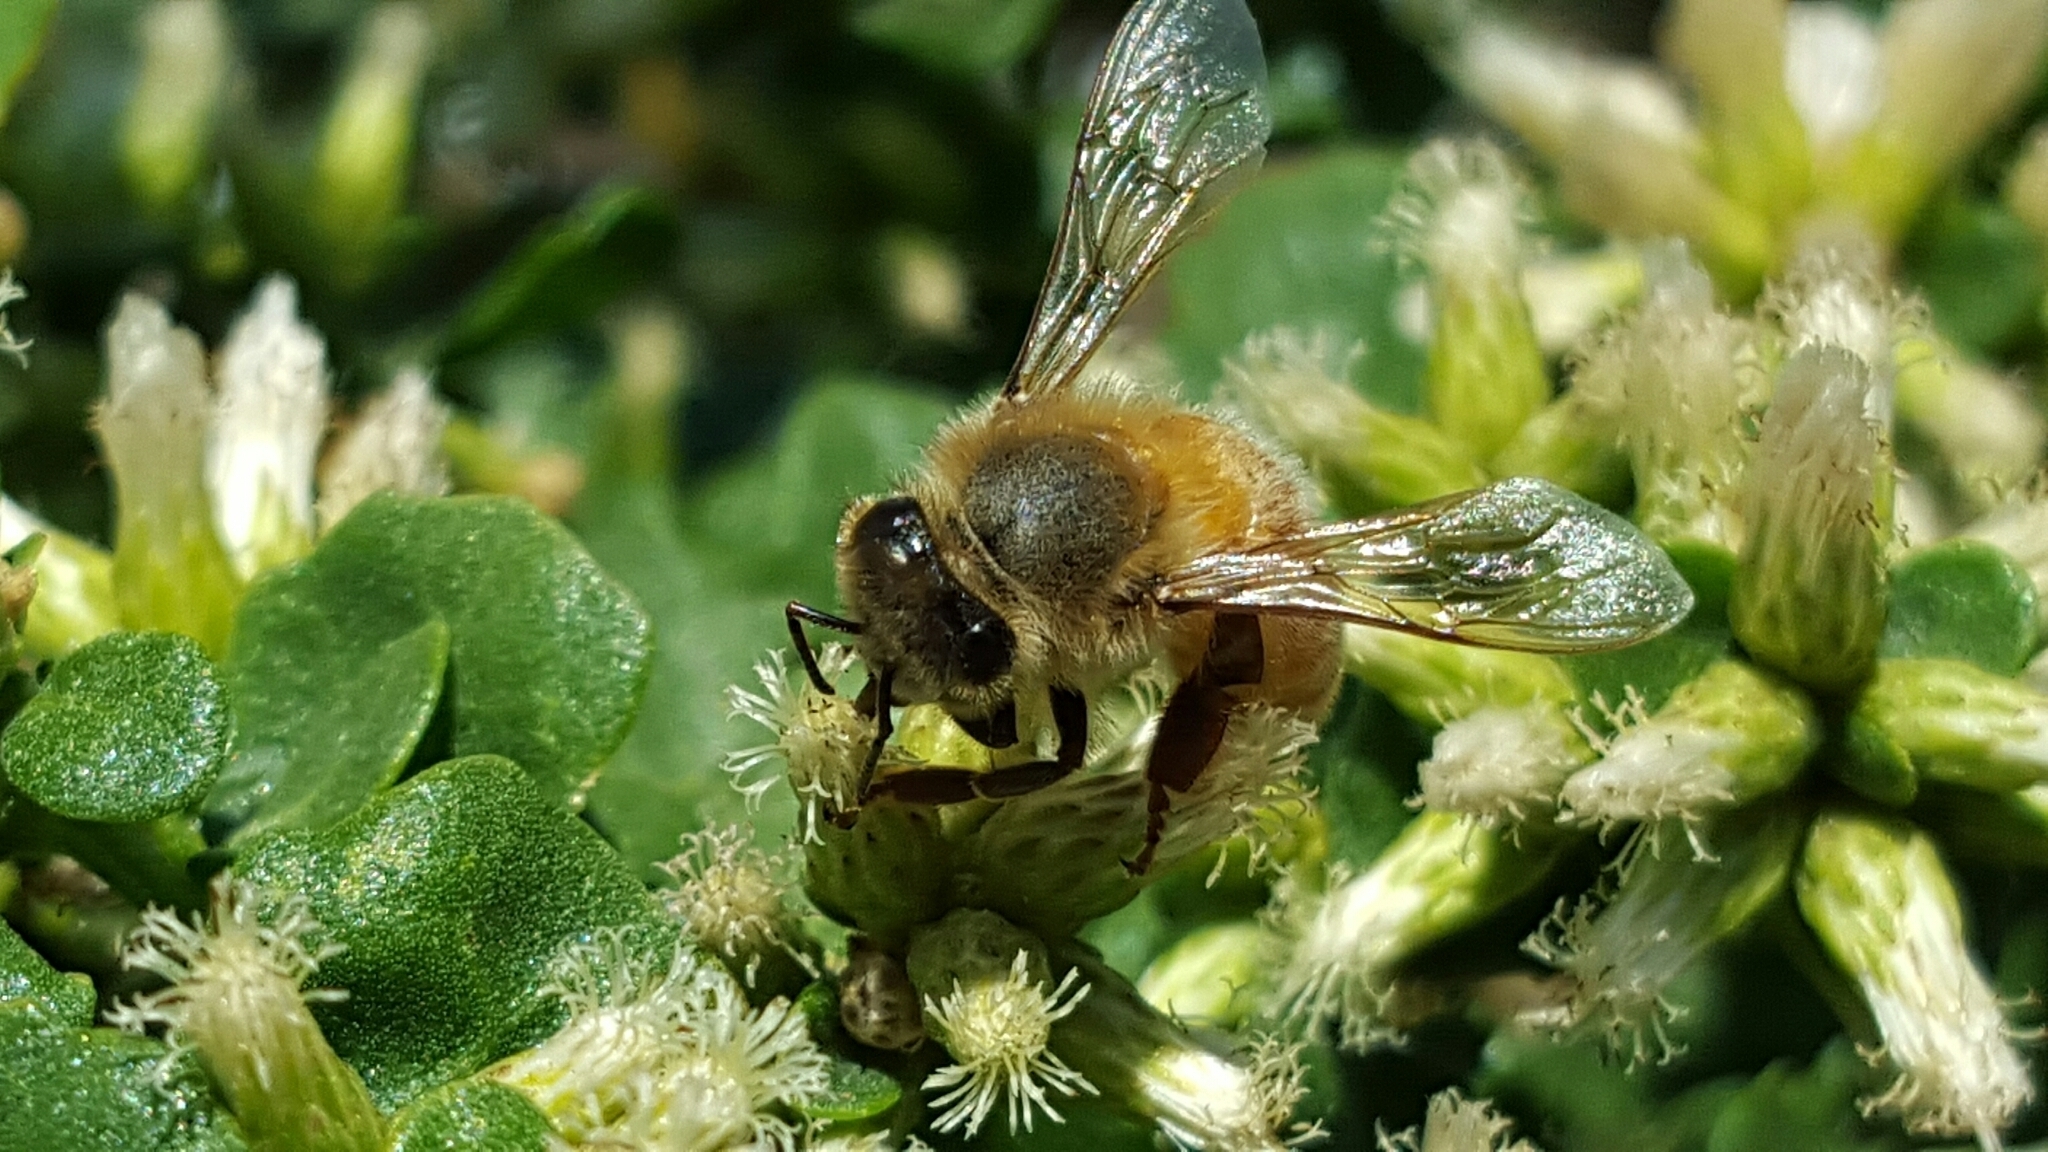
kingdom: Animalia
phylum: Arthropoda
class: Insecta
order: Hymenoptera
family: Apidae
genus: Apis
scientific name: Apis mellifera
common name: Honey bee
